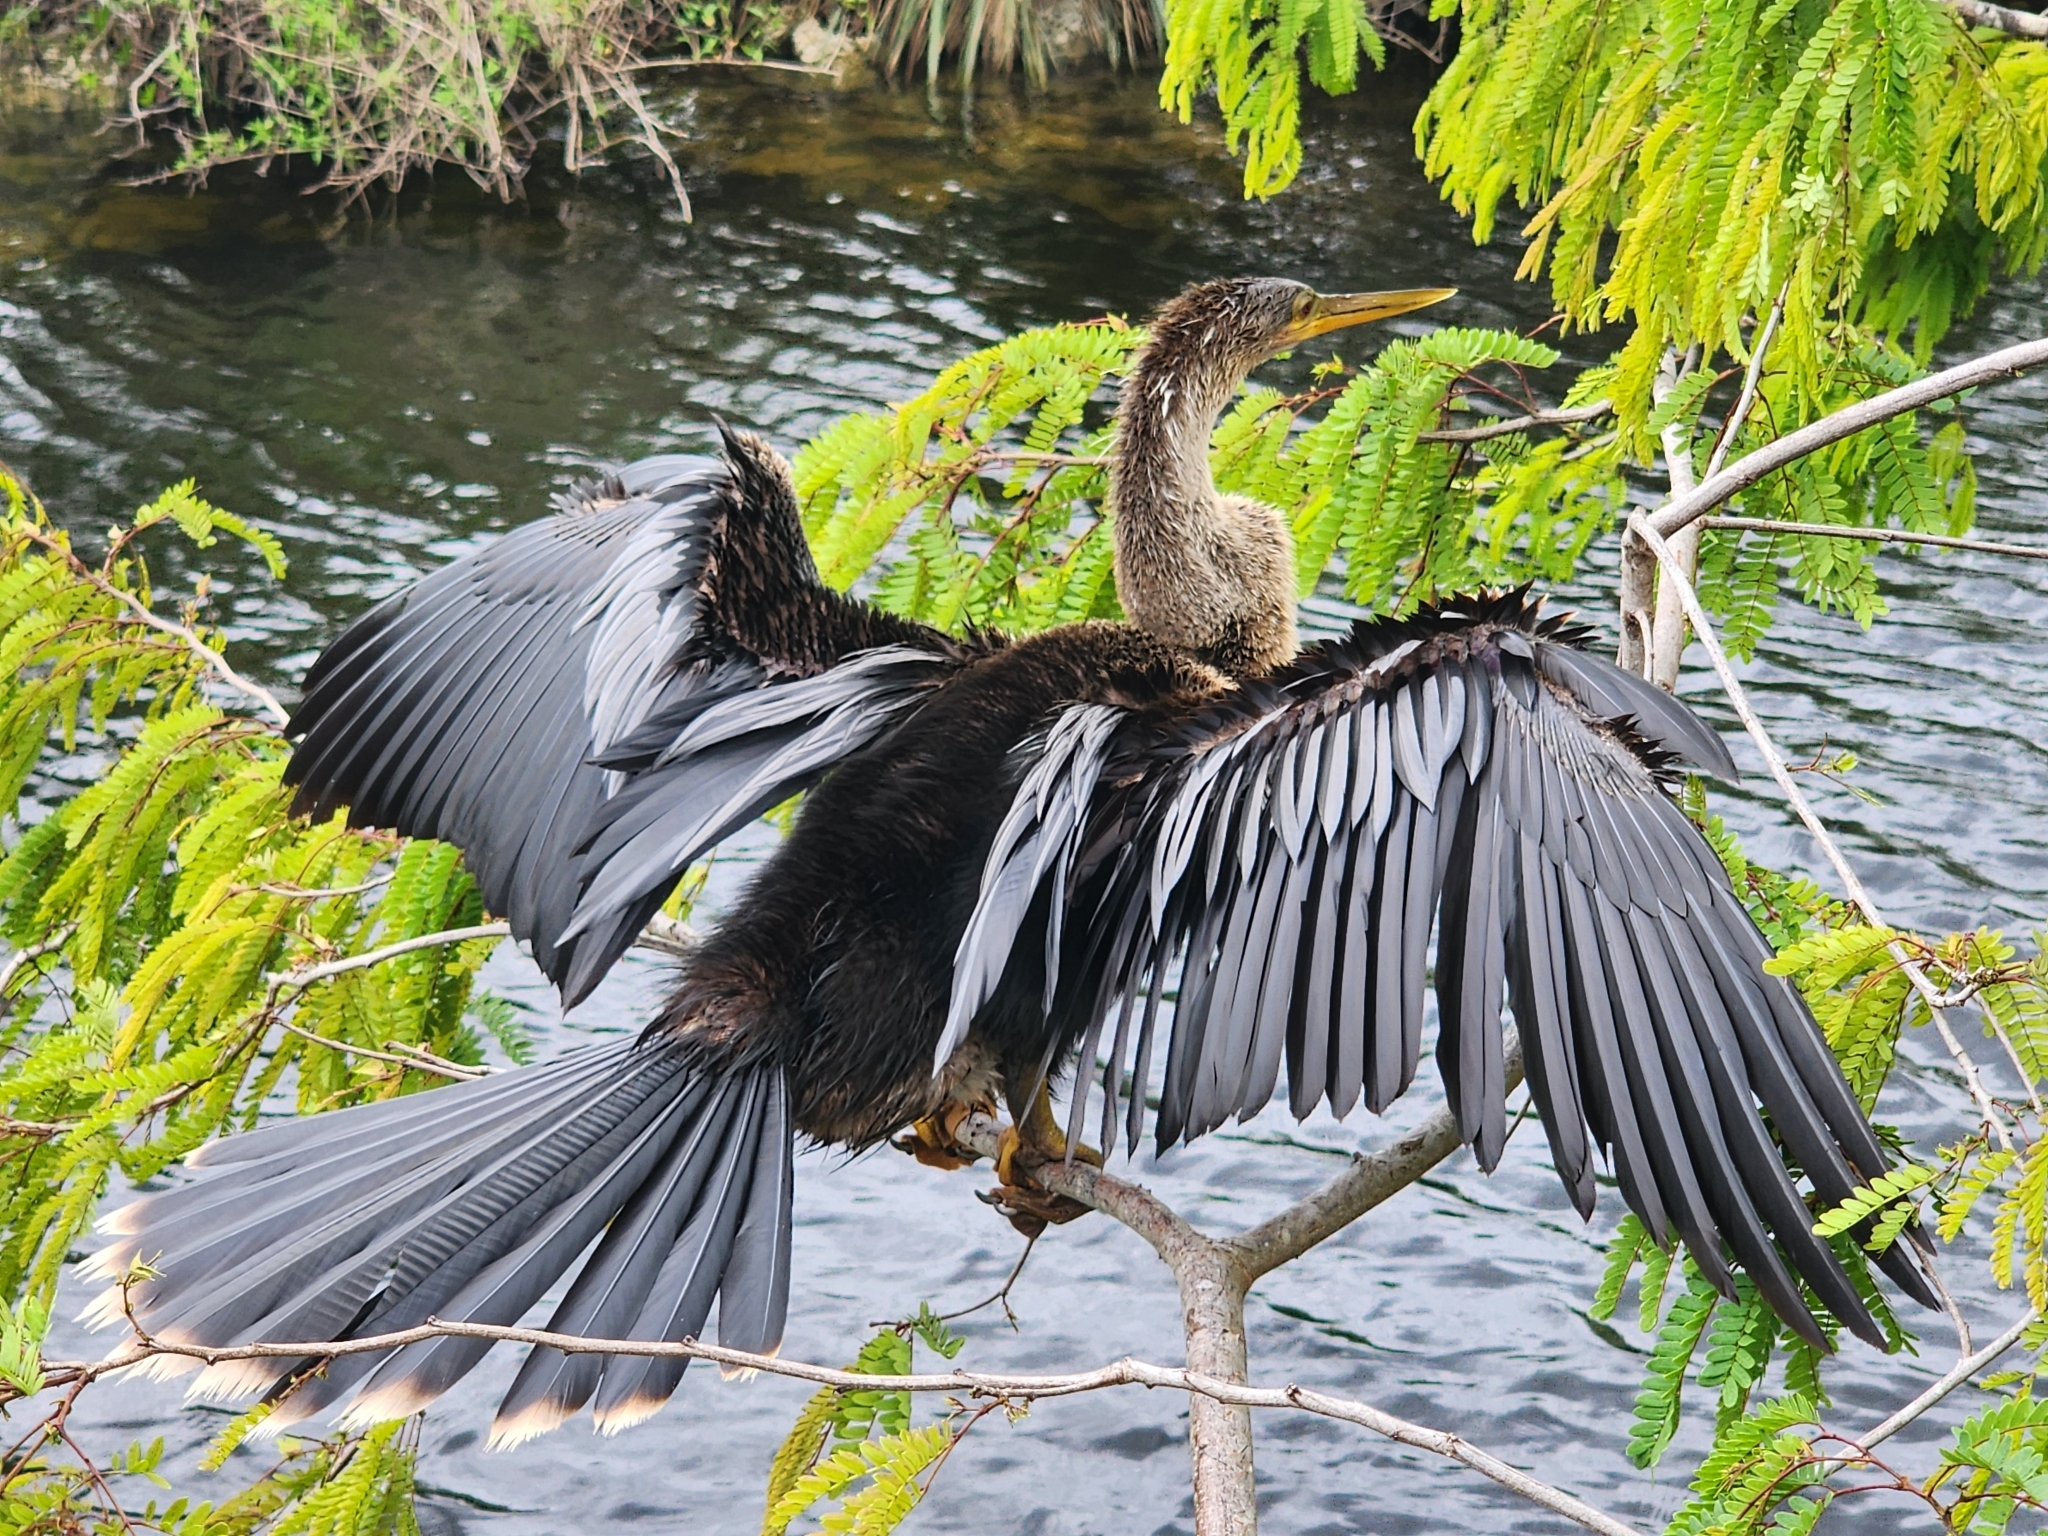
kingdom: Animalia
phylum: Chordata
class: Aves
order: Suliformes
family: Anhingidae
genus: Anhinga
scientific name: Anhinga anhinga
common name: Anhinga
